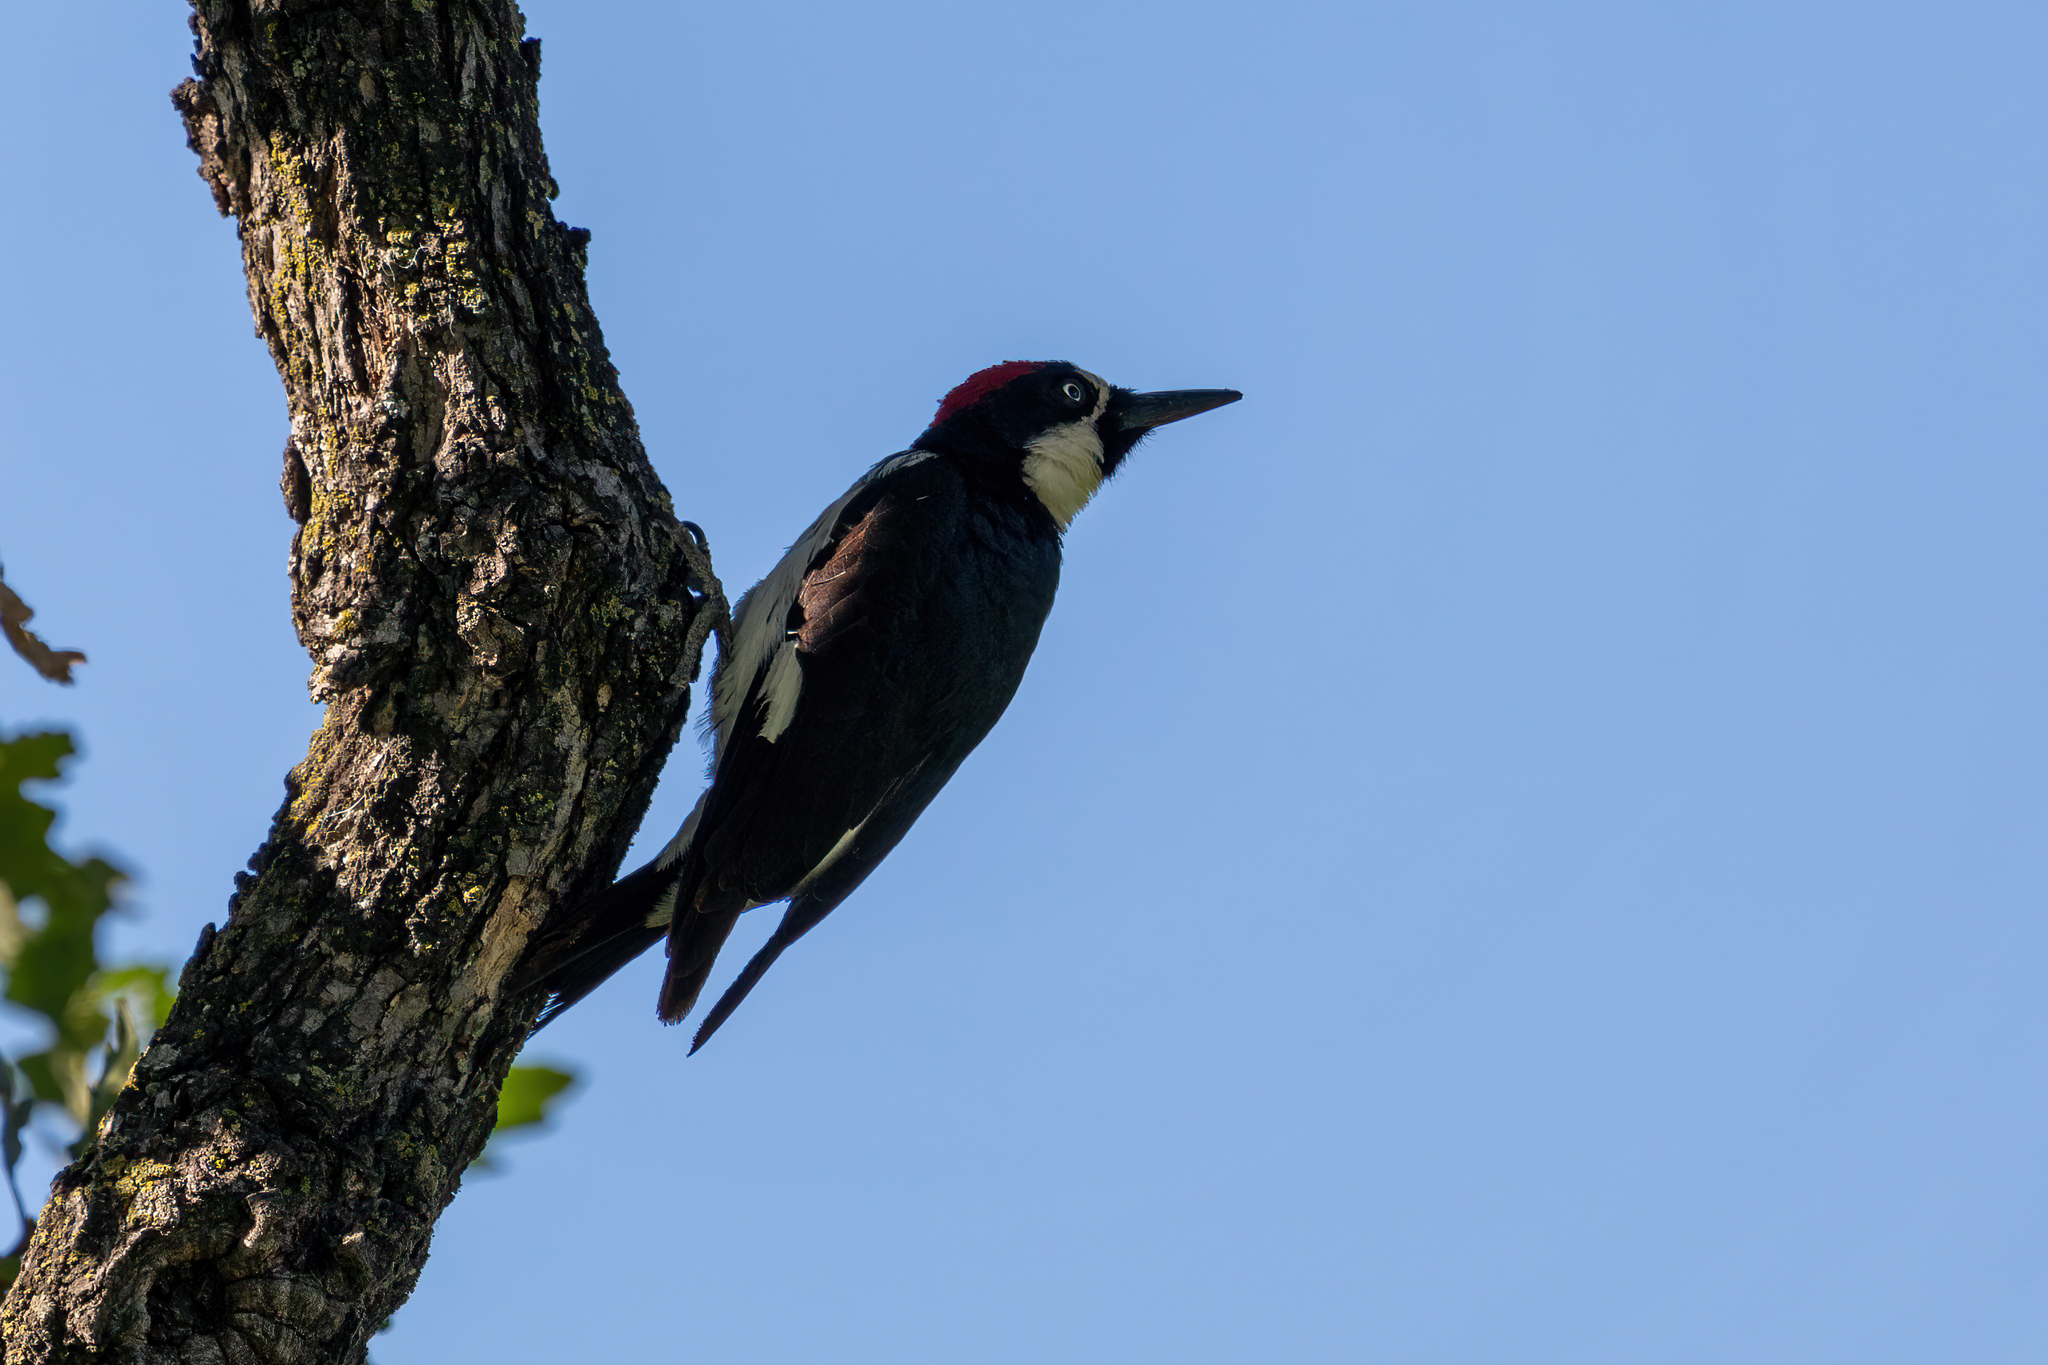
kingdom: Animalia
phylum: Chordata
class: Aves
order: Piciformes
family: Picidae
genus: Melanerpes
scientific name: Melanerpes formicivorus
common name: Acorn woodpecker
